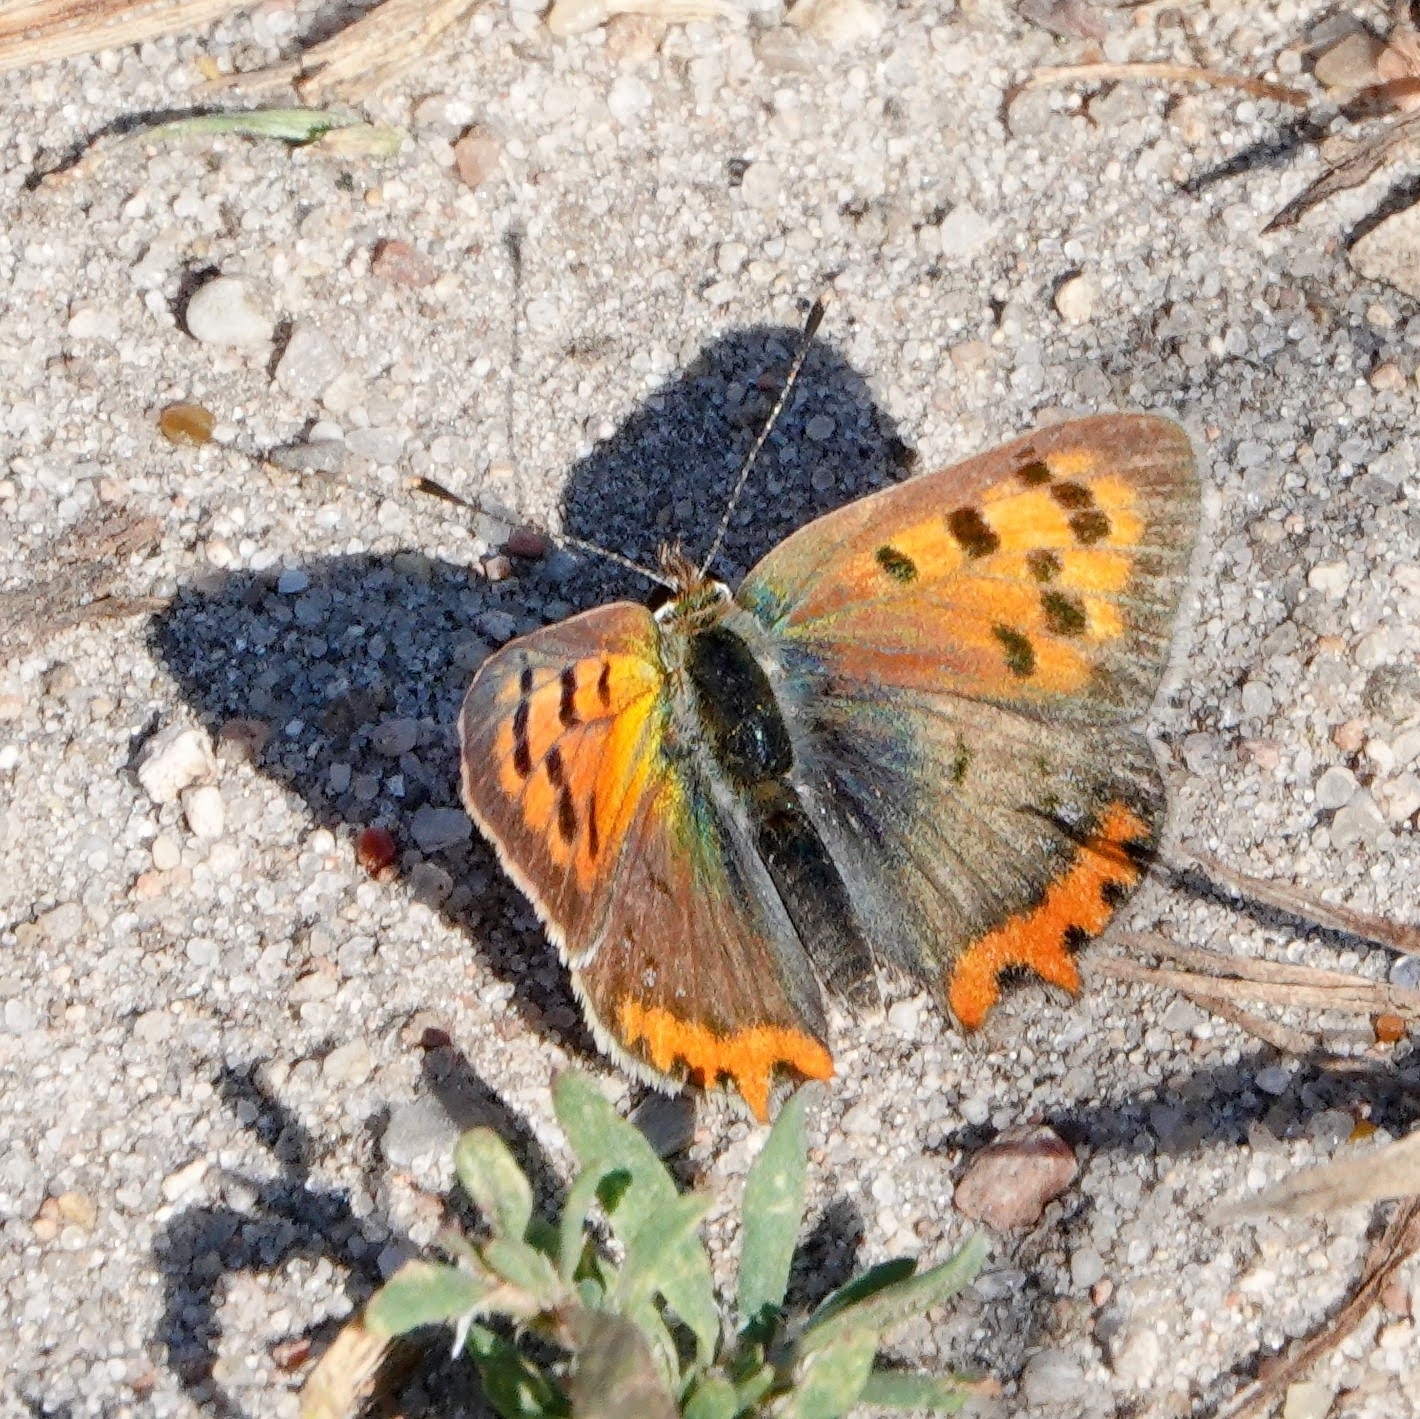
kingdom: Animalia
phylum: Arthropoda
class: Insecta
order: Lepidoptera
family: Lycaenidae
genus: Lycaena
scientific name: Lycaena phlaeas
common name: Small copper
